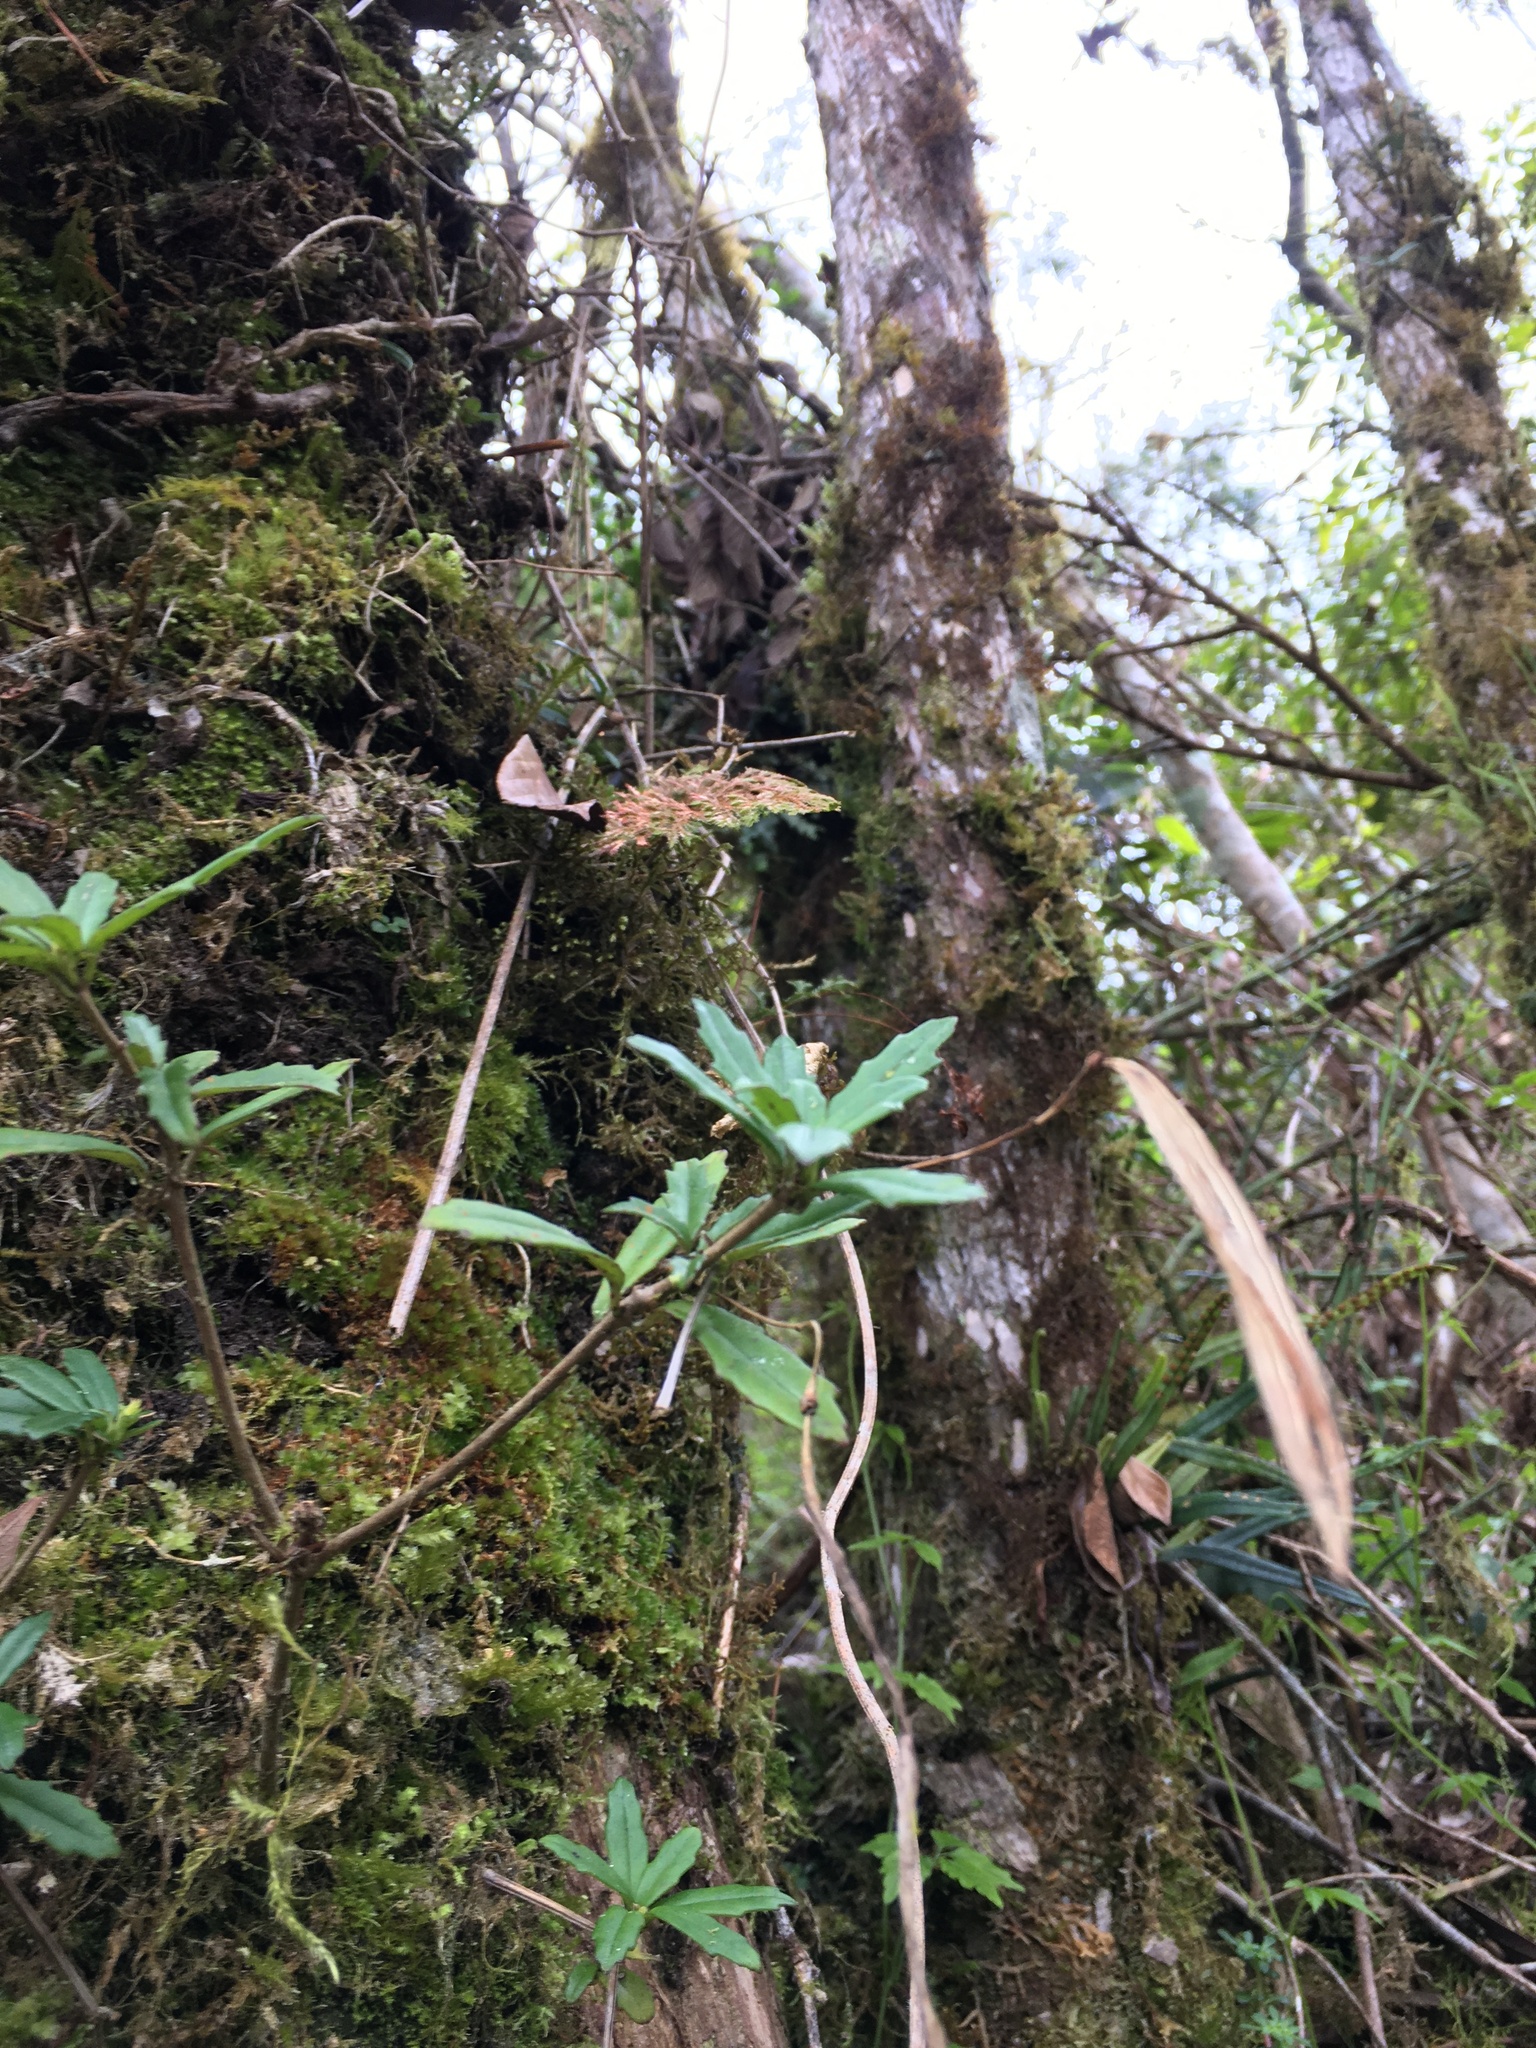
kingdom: Plantae
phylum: Tracheophyta
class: Magnoliopsida
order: Lamiales
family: Gesneriaceae
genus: Lysionotus
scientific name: Lysionotus pauciflorus
